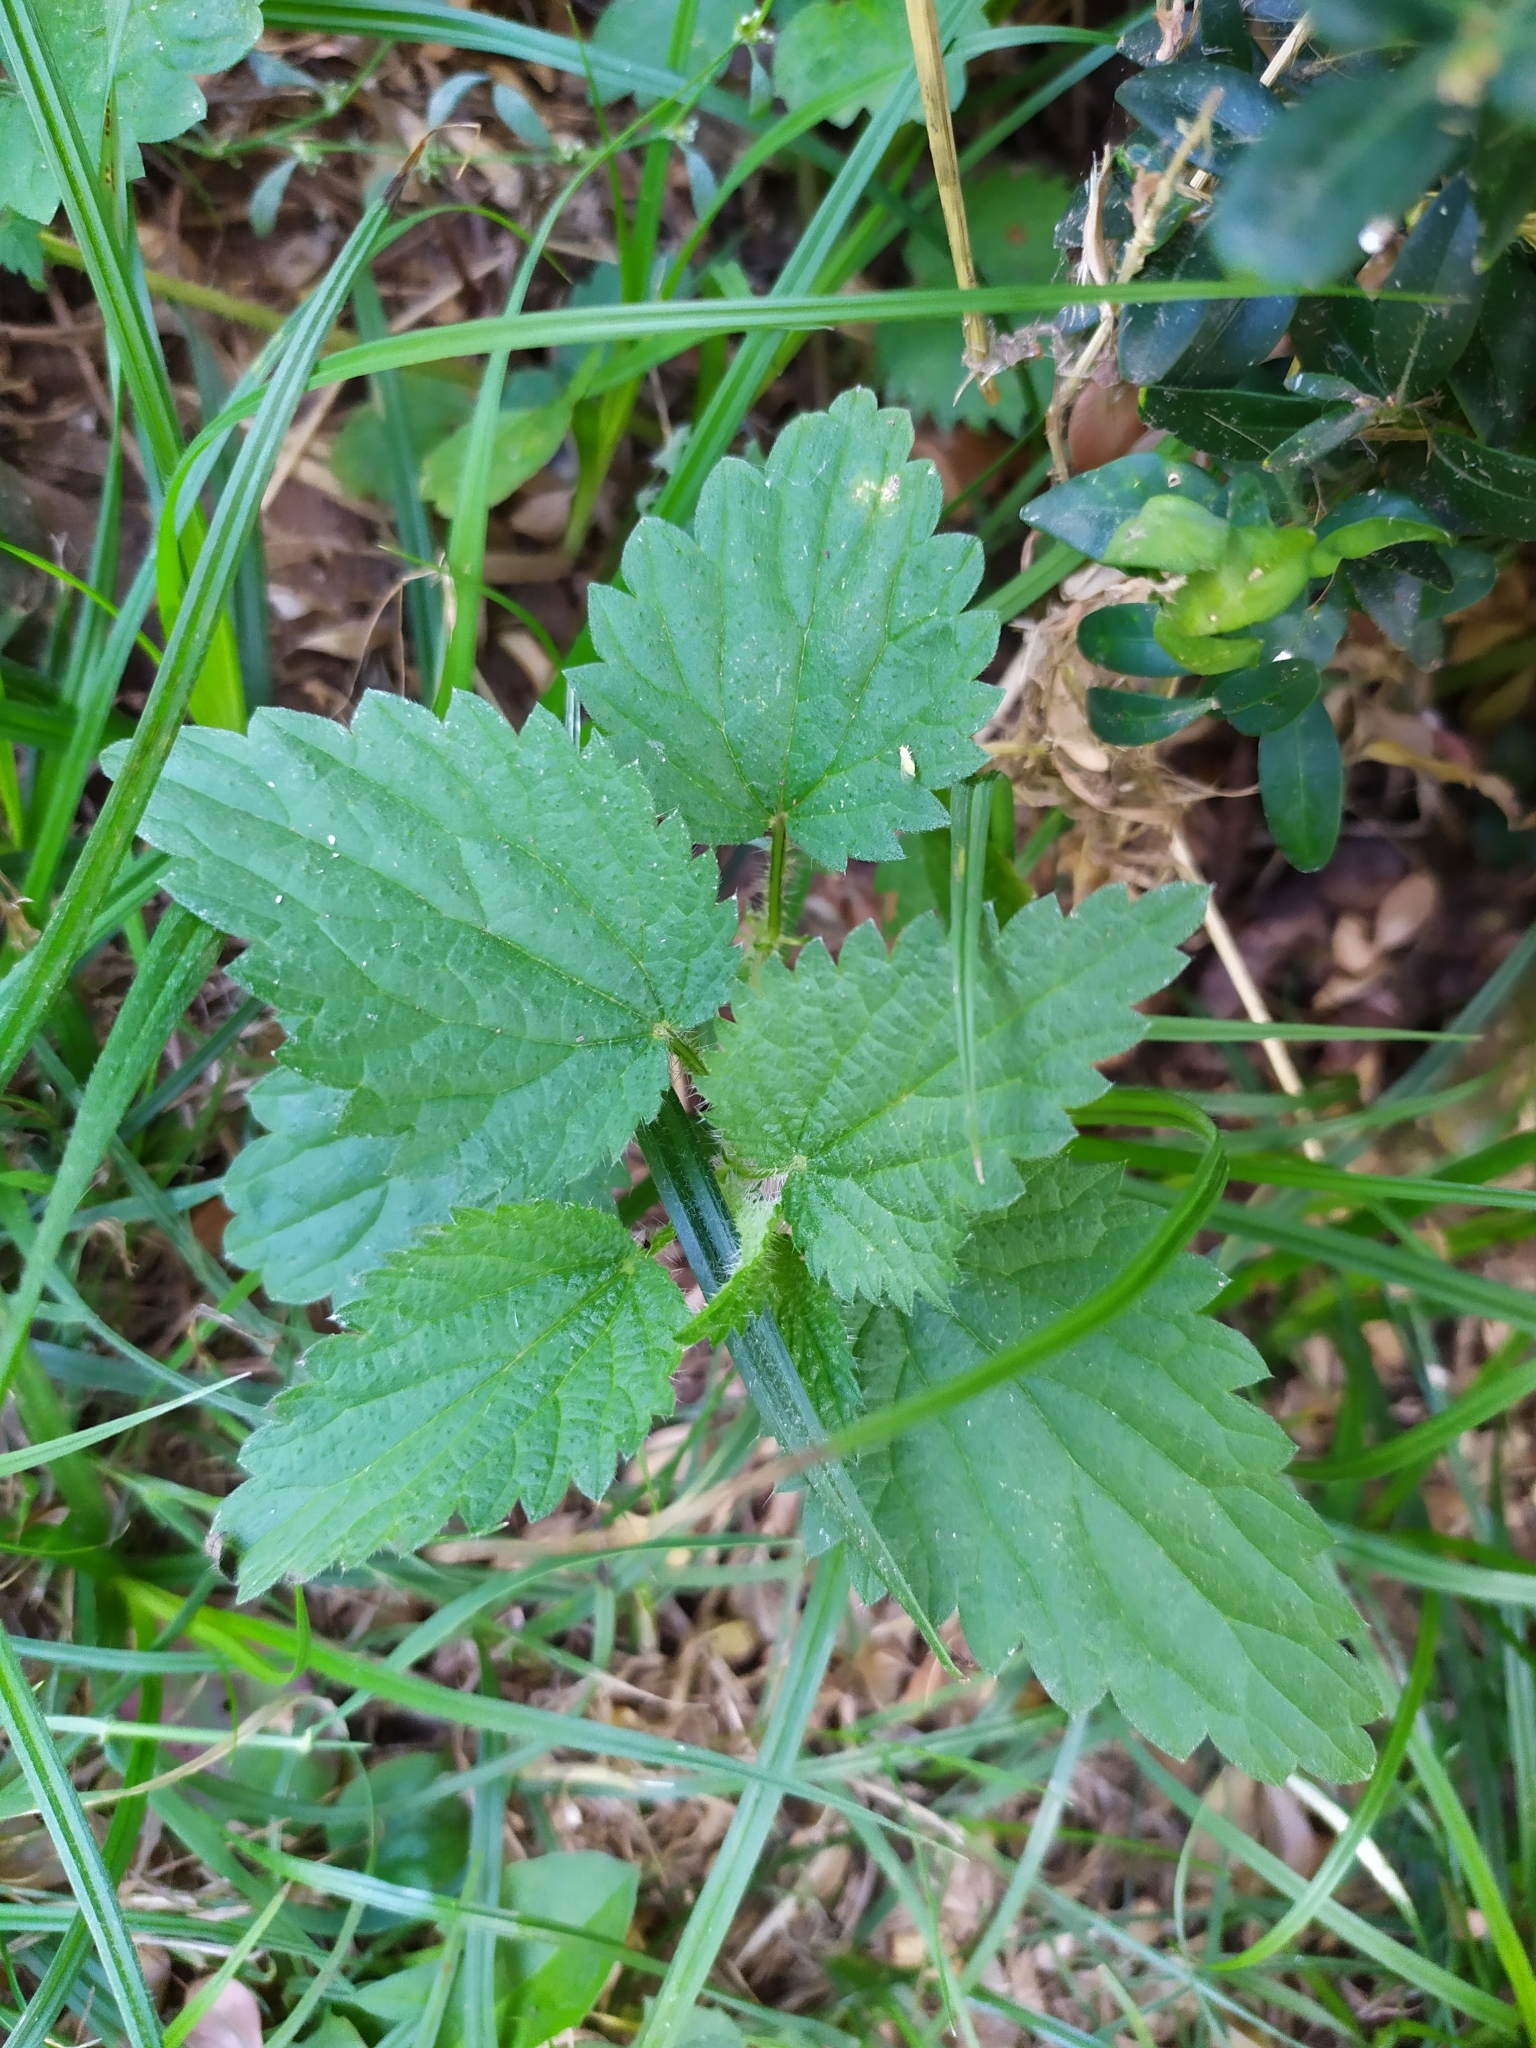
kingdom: Plantae
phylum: Tracheophyta
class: Magnoliopsida
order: Rosales
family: Urticaceae
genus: Urtica
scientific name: Urtica dioica
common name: Common nettle
